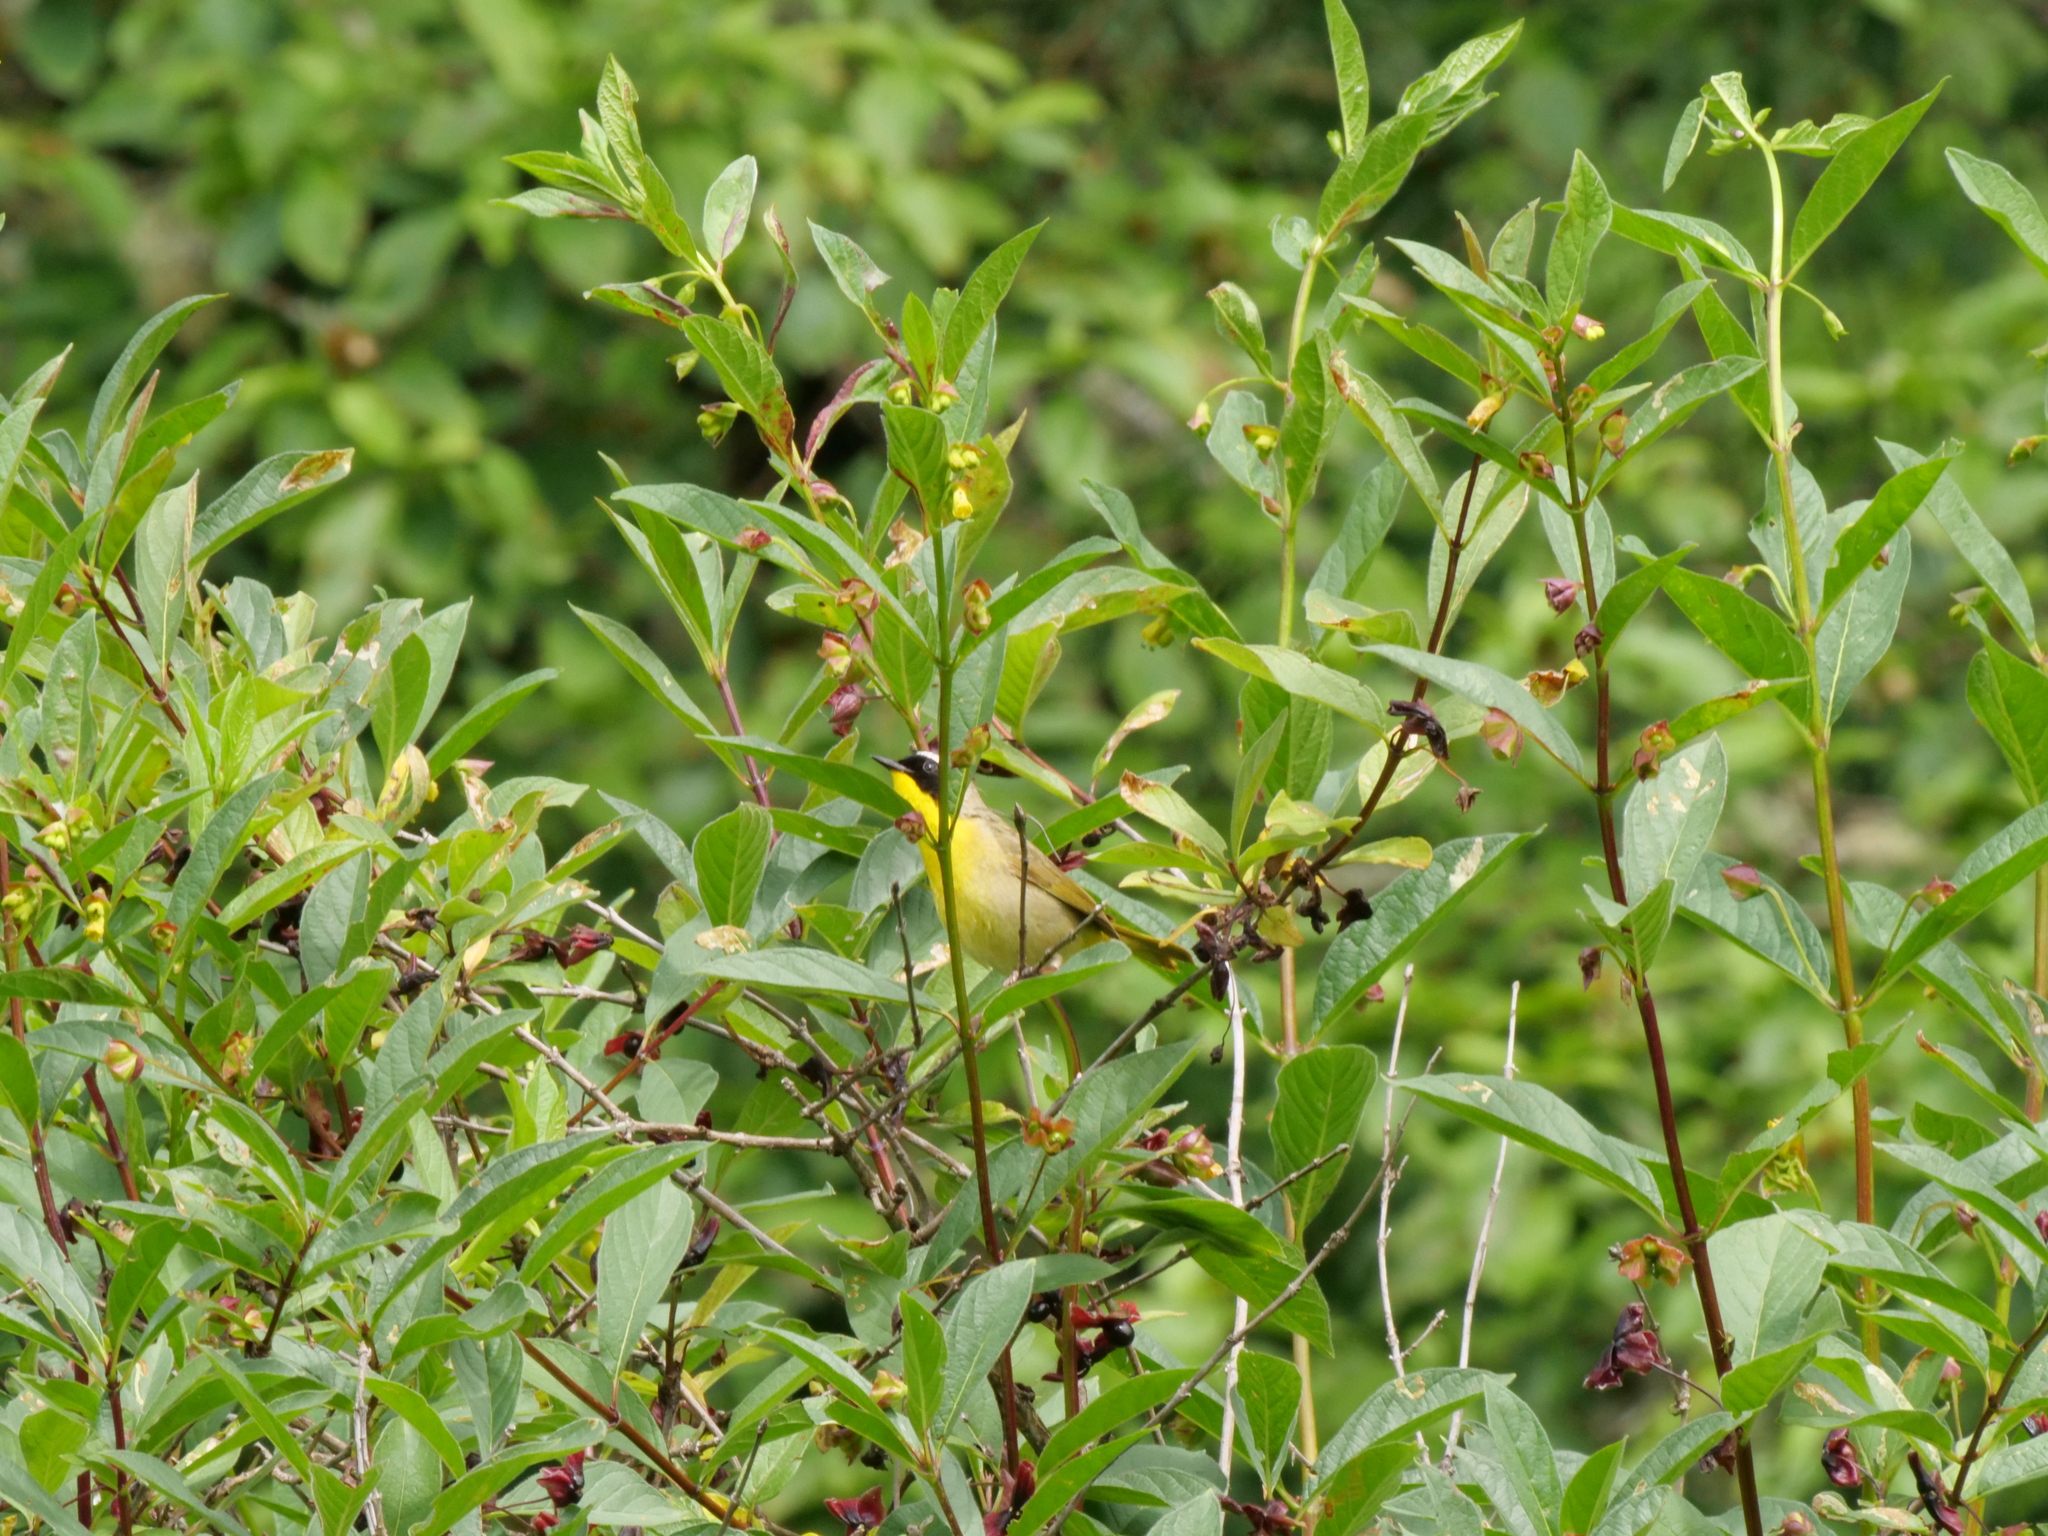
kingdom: Animalia
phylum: Chordata
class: Aves
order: Passeriformes
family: Parulidae
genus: Geothlypis
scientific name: Geothlypis trichas
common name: Common yellowthroat
